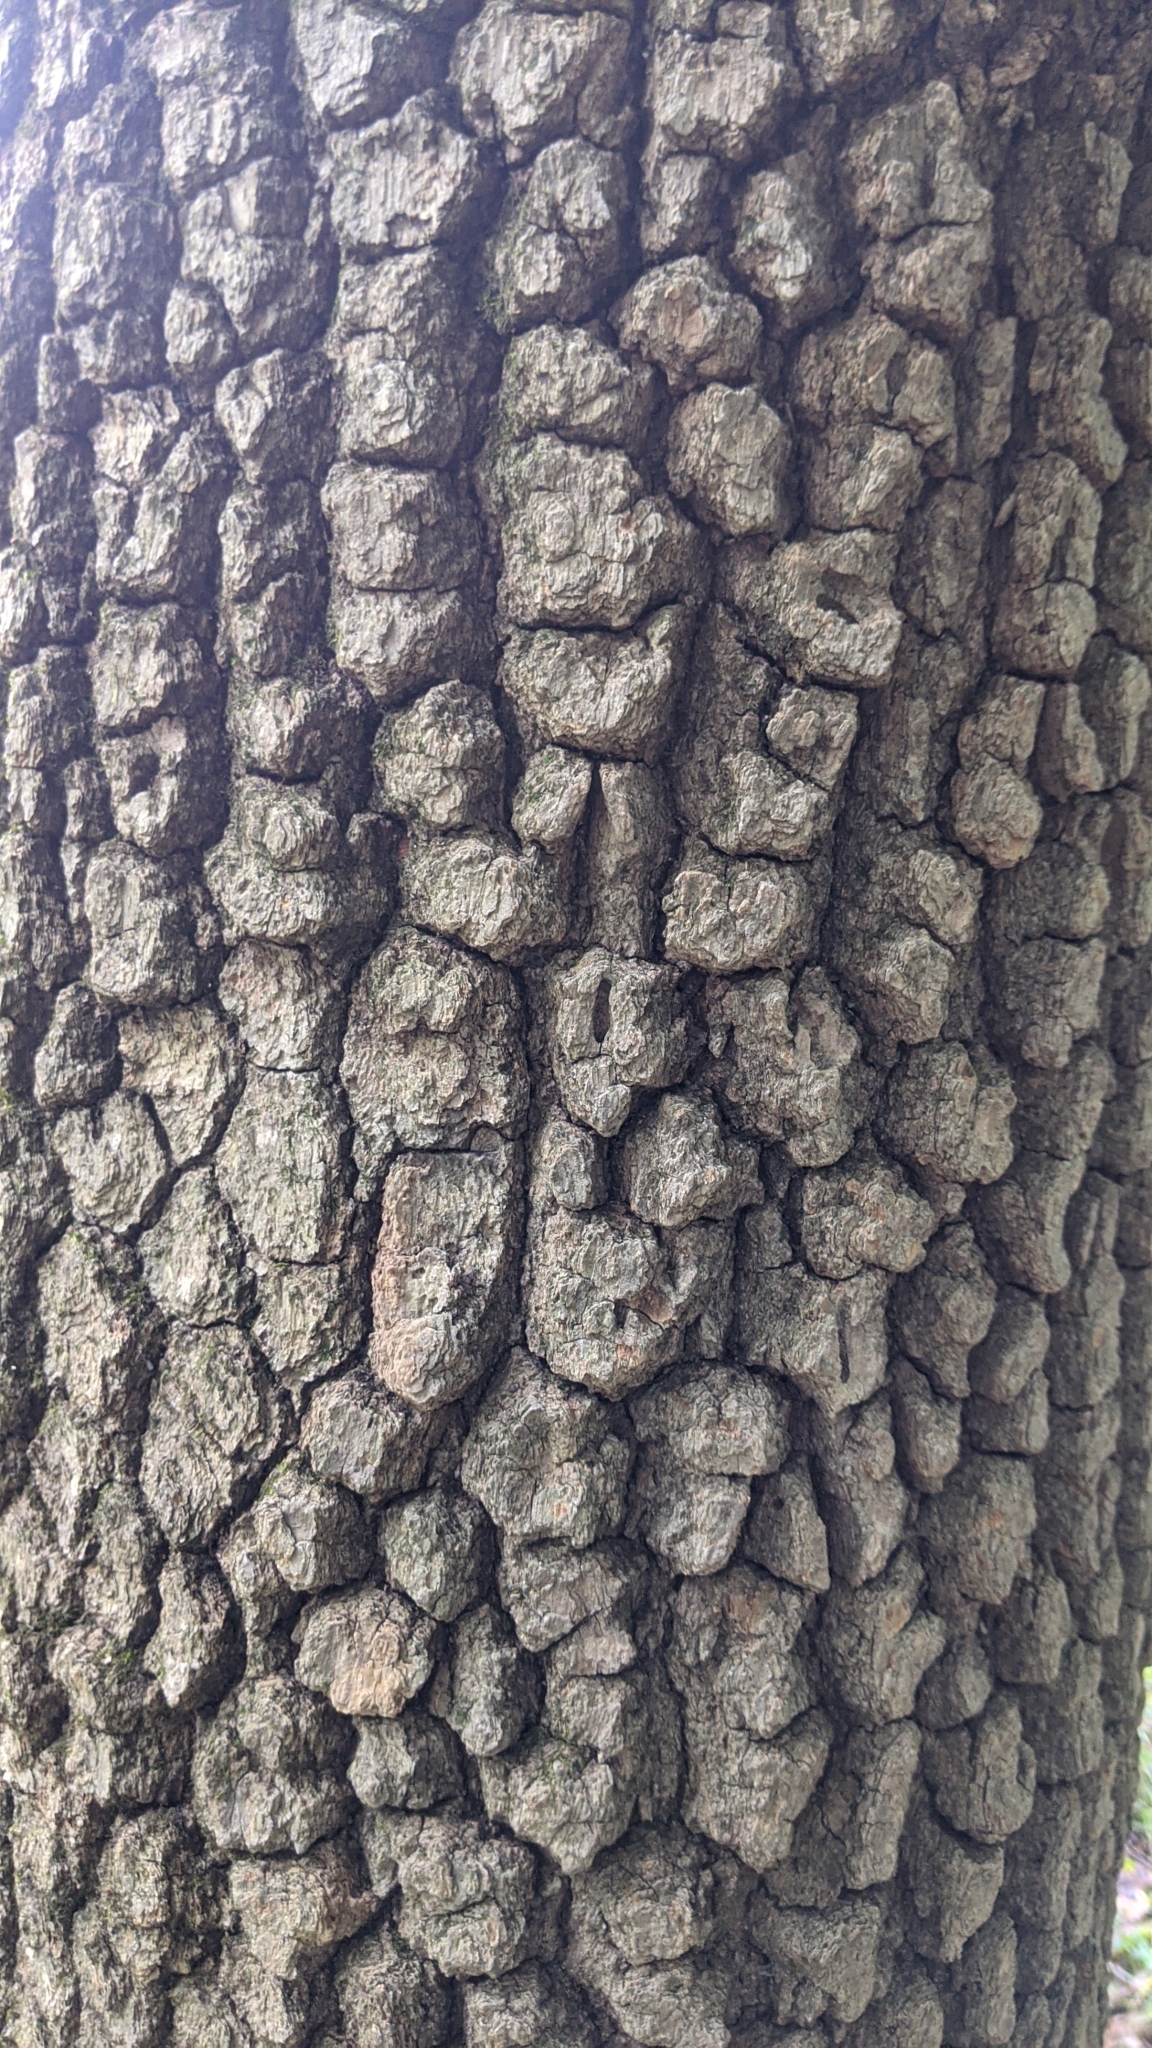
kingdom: Plantae
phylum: Tracheophyta
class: Magnoliopsida
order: Ericales
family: Ebenaceae
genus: Diospyros
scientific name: Diospyros virginiana
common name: Persimmon
